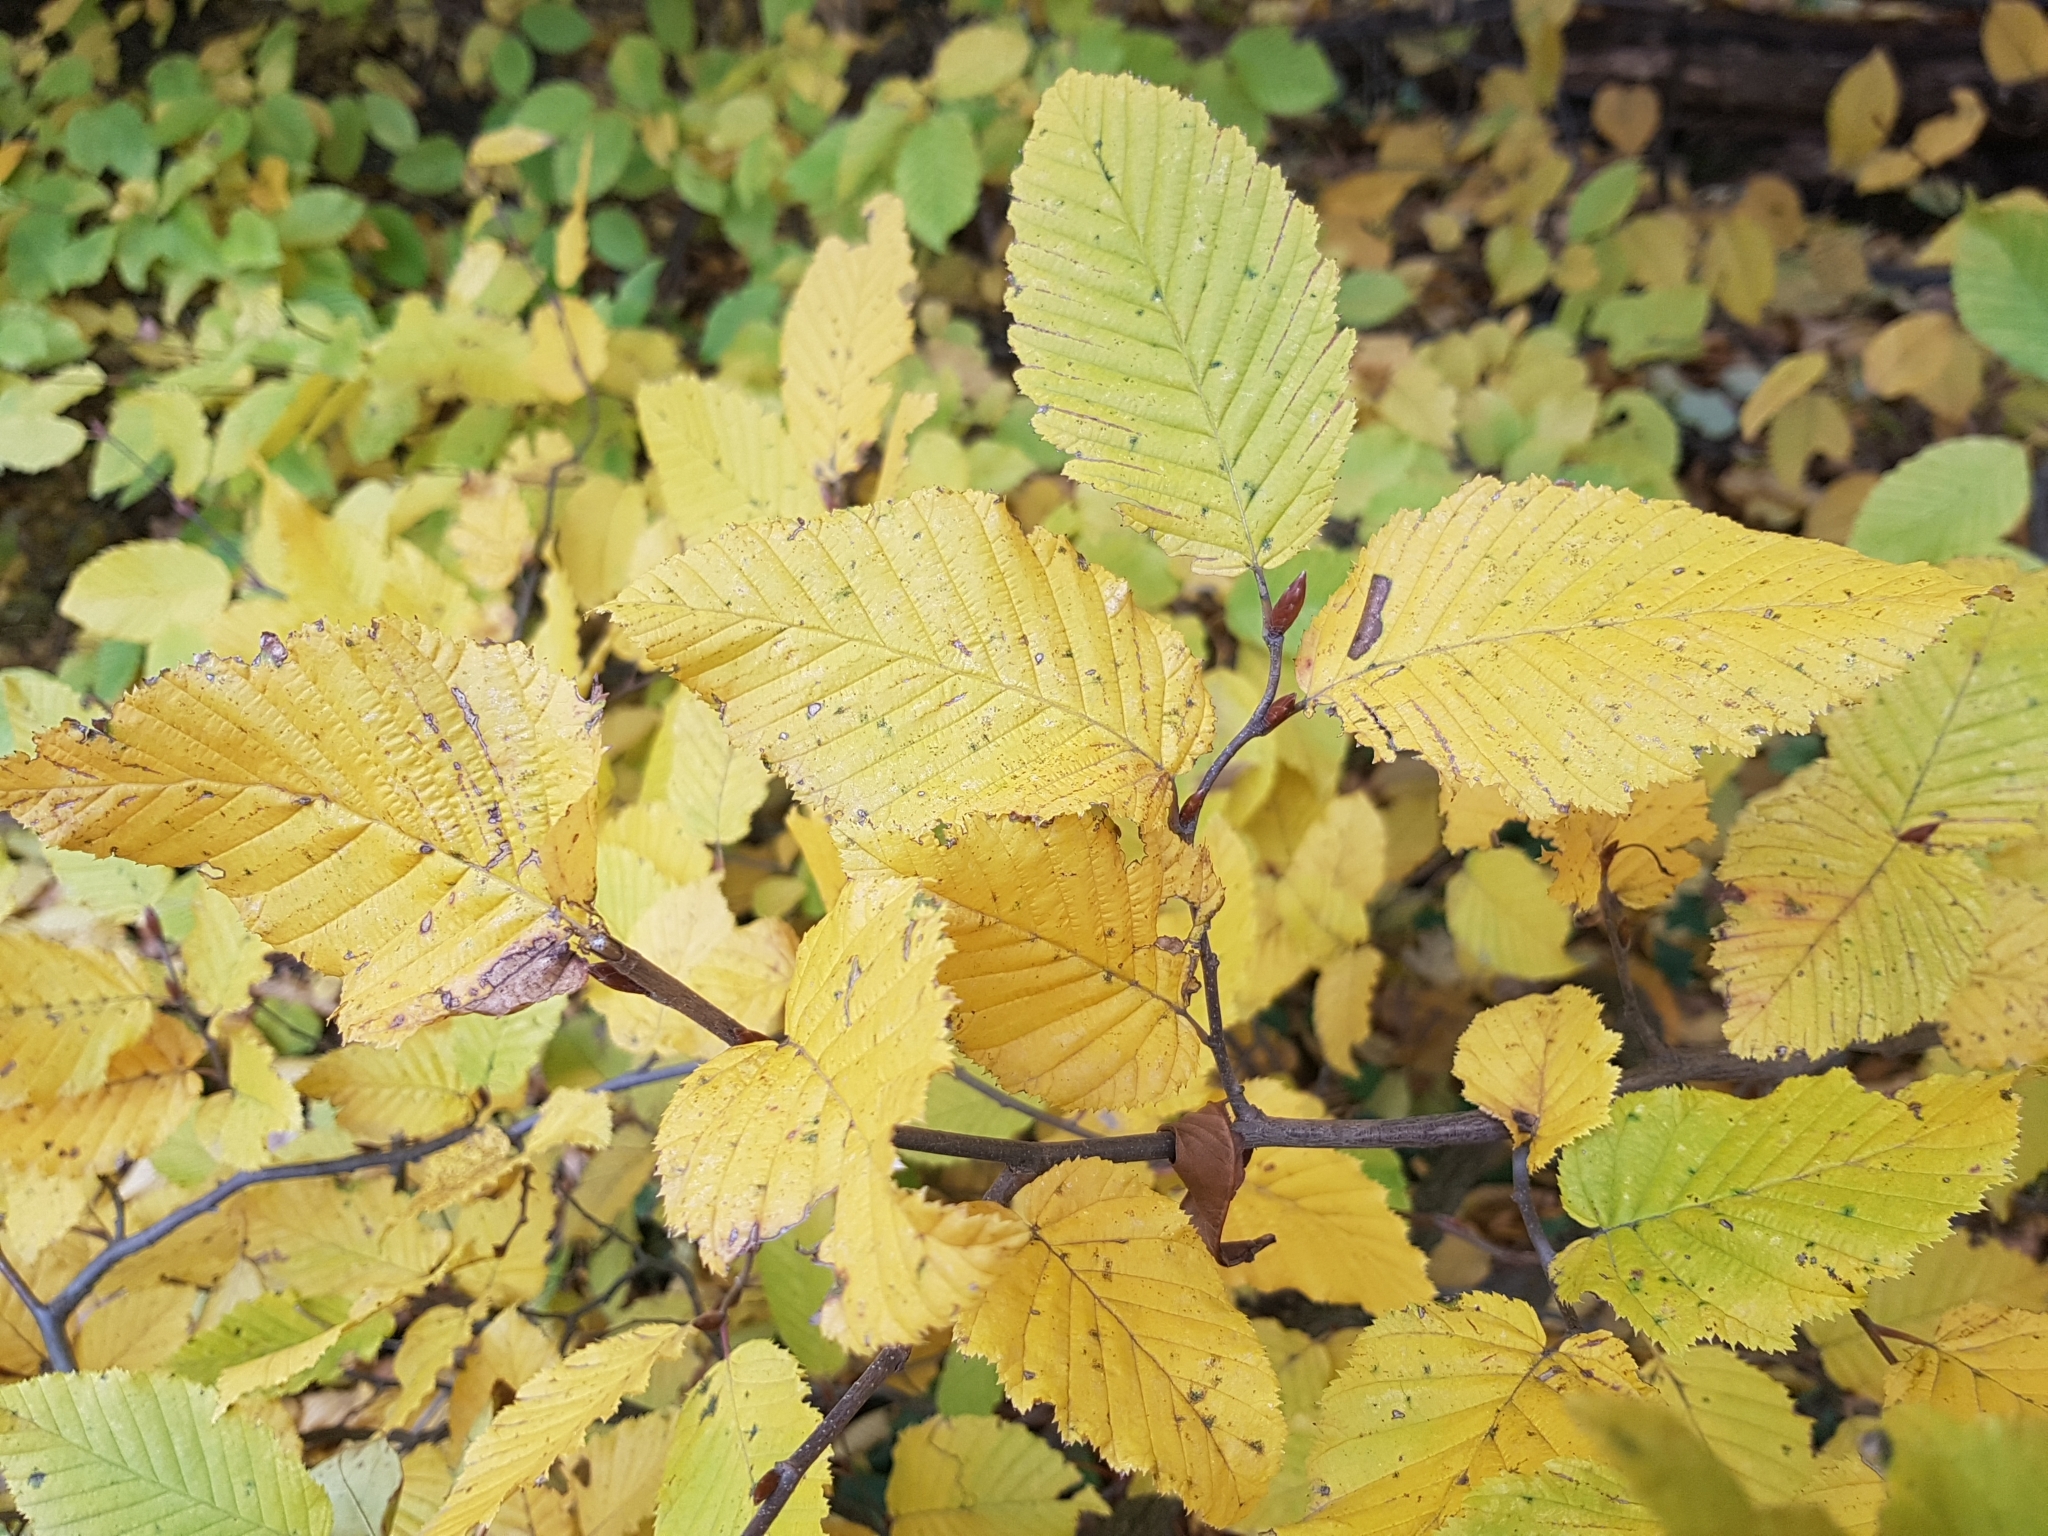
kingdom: Plantae
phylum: Tracheophyta
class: Magnoliopsida
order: Fagales
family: Betulaceae
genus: Carpinus
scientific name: Carpinus betulus
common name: Hornbeam
